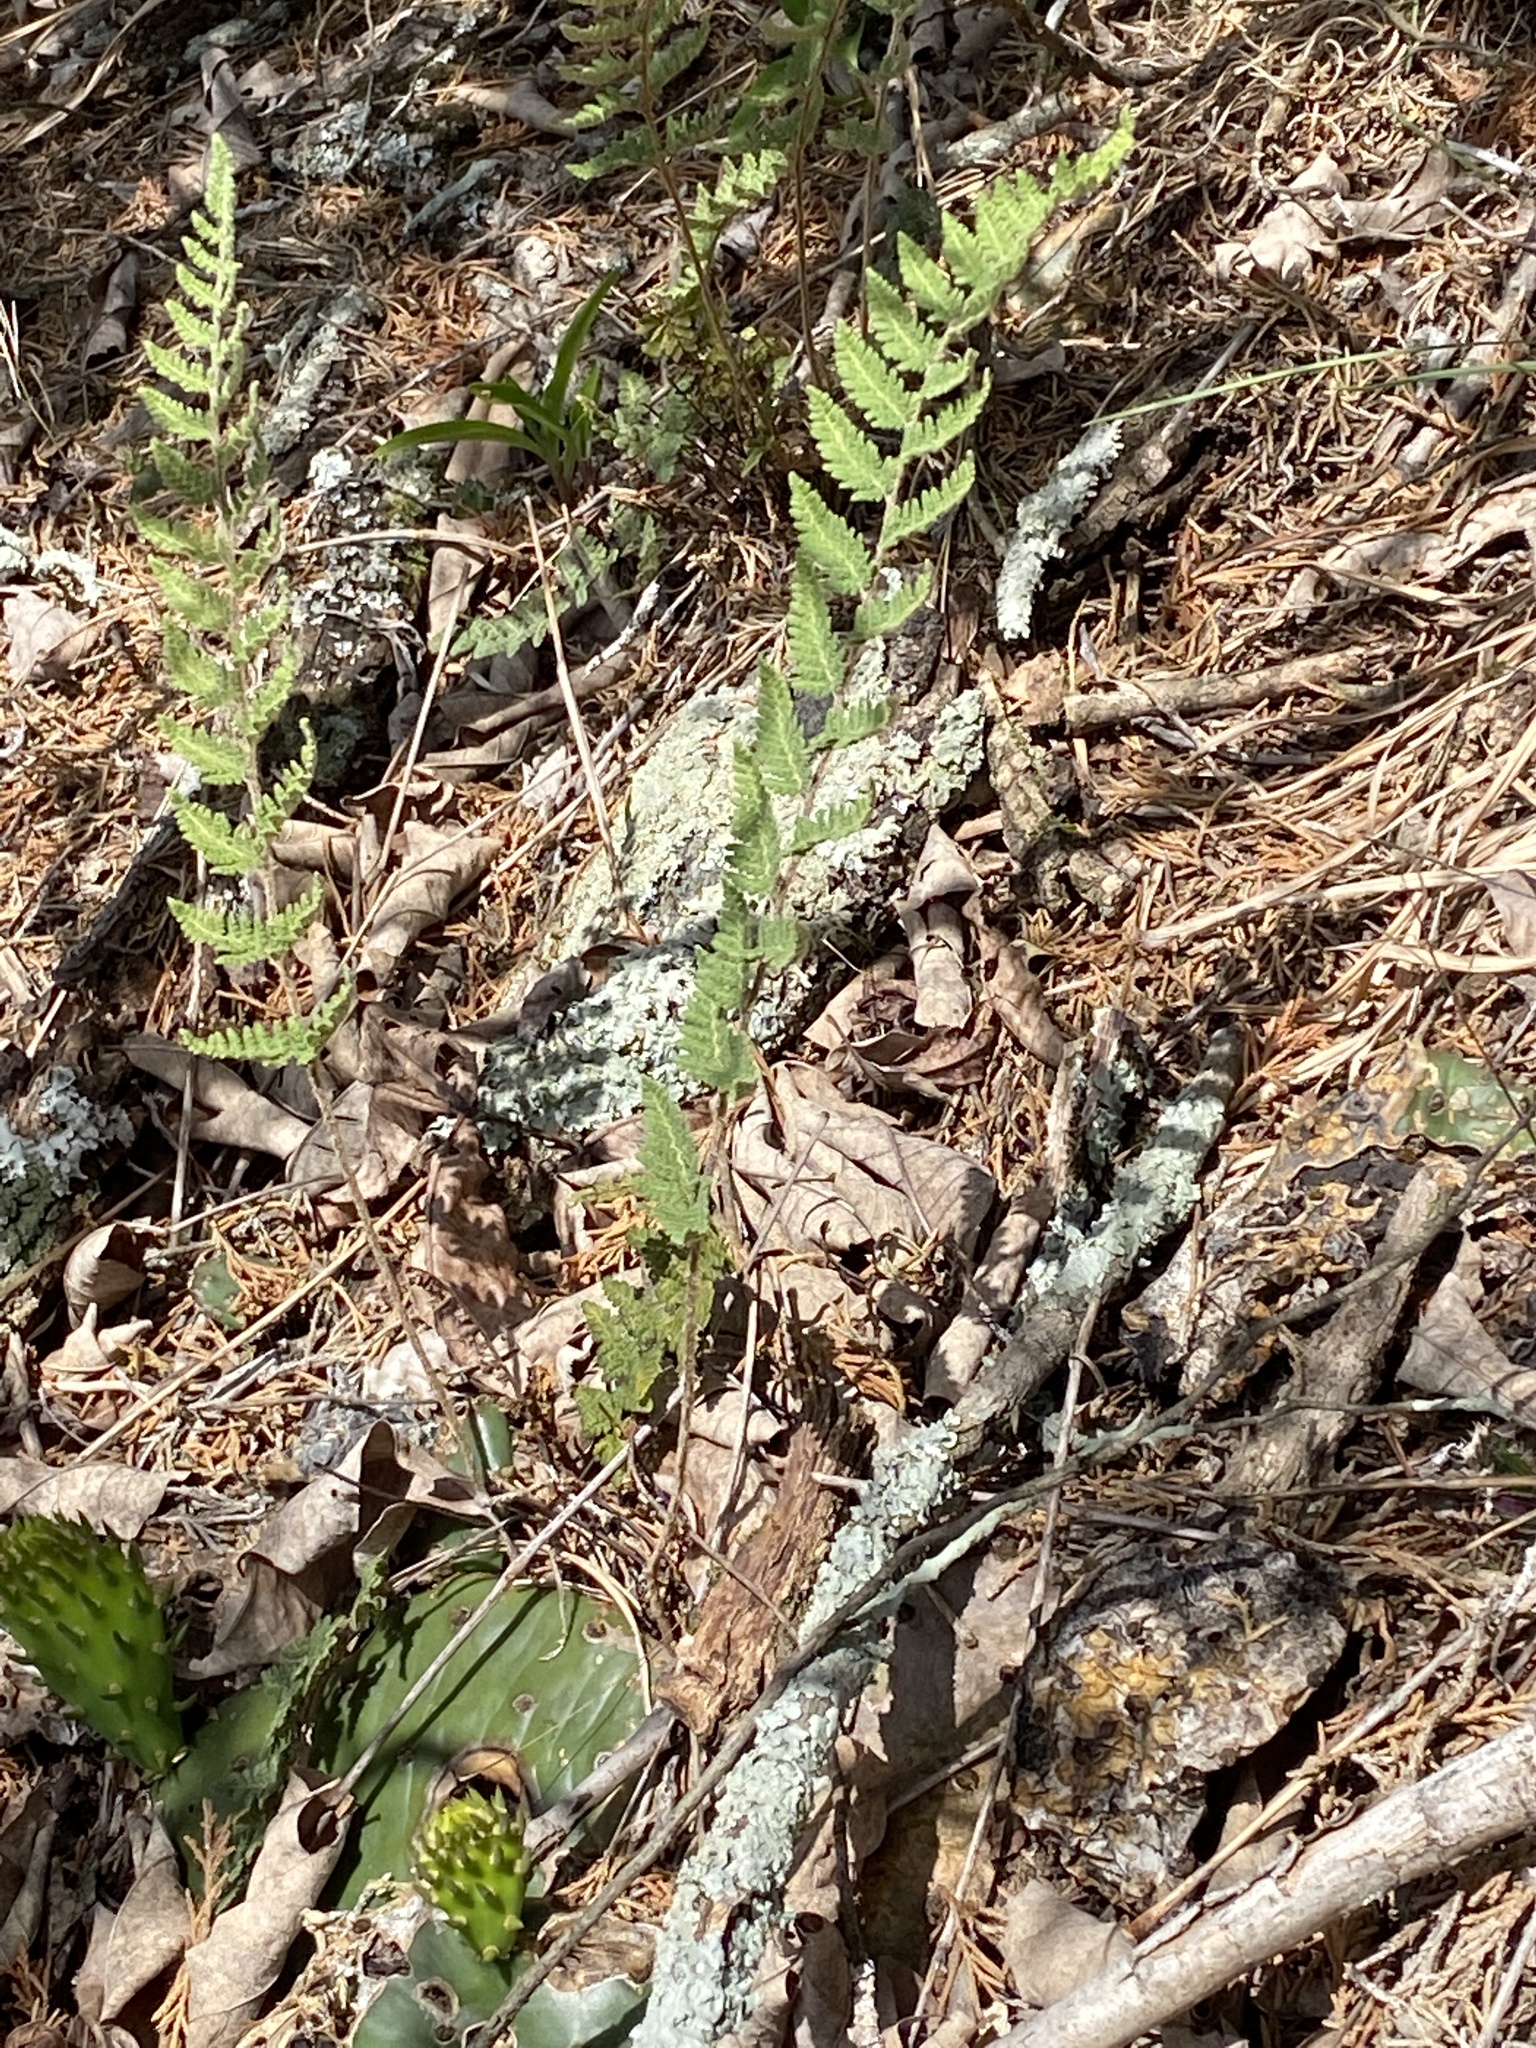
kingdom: Plantae
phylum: Tracheophyta
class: Polypodiopsida
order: Polypodiales
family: Pteridaceae
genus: Myriopteris
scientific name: Myriopteris tomentosa
